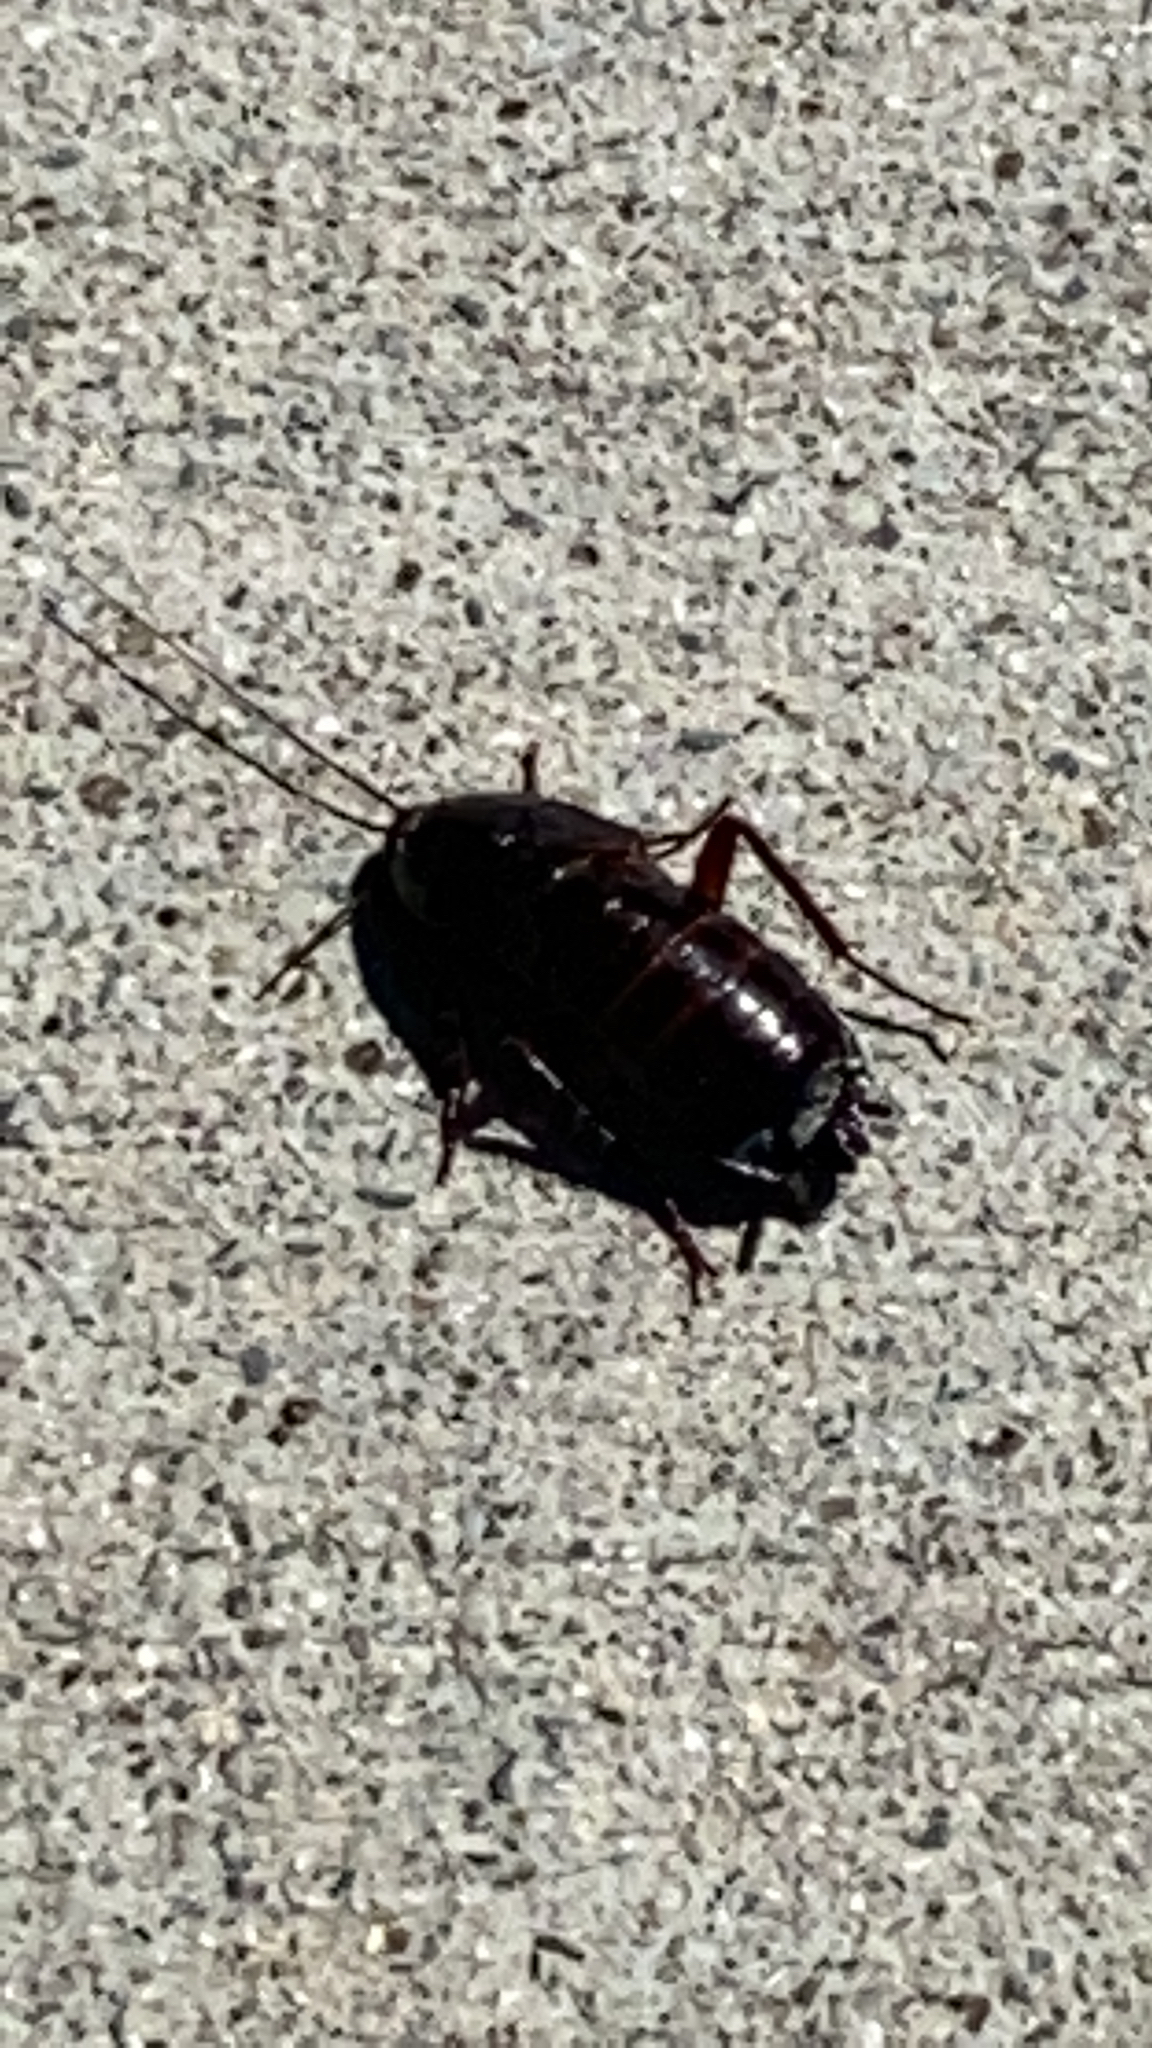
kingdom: Animalia
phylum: Arthropoda
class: Insecta
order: Blattodea
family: Blattidae
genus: Blatta
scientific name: Blatta orientalis
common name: Oriental cockroach
